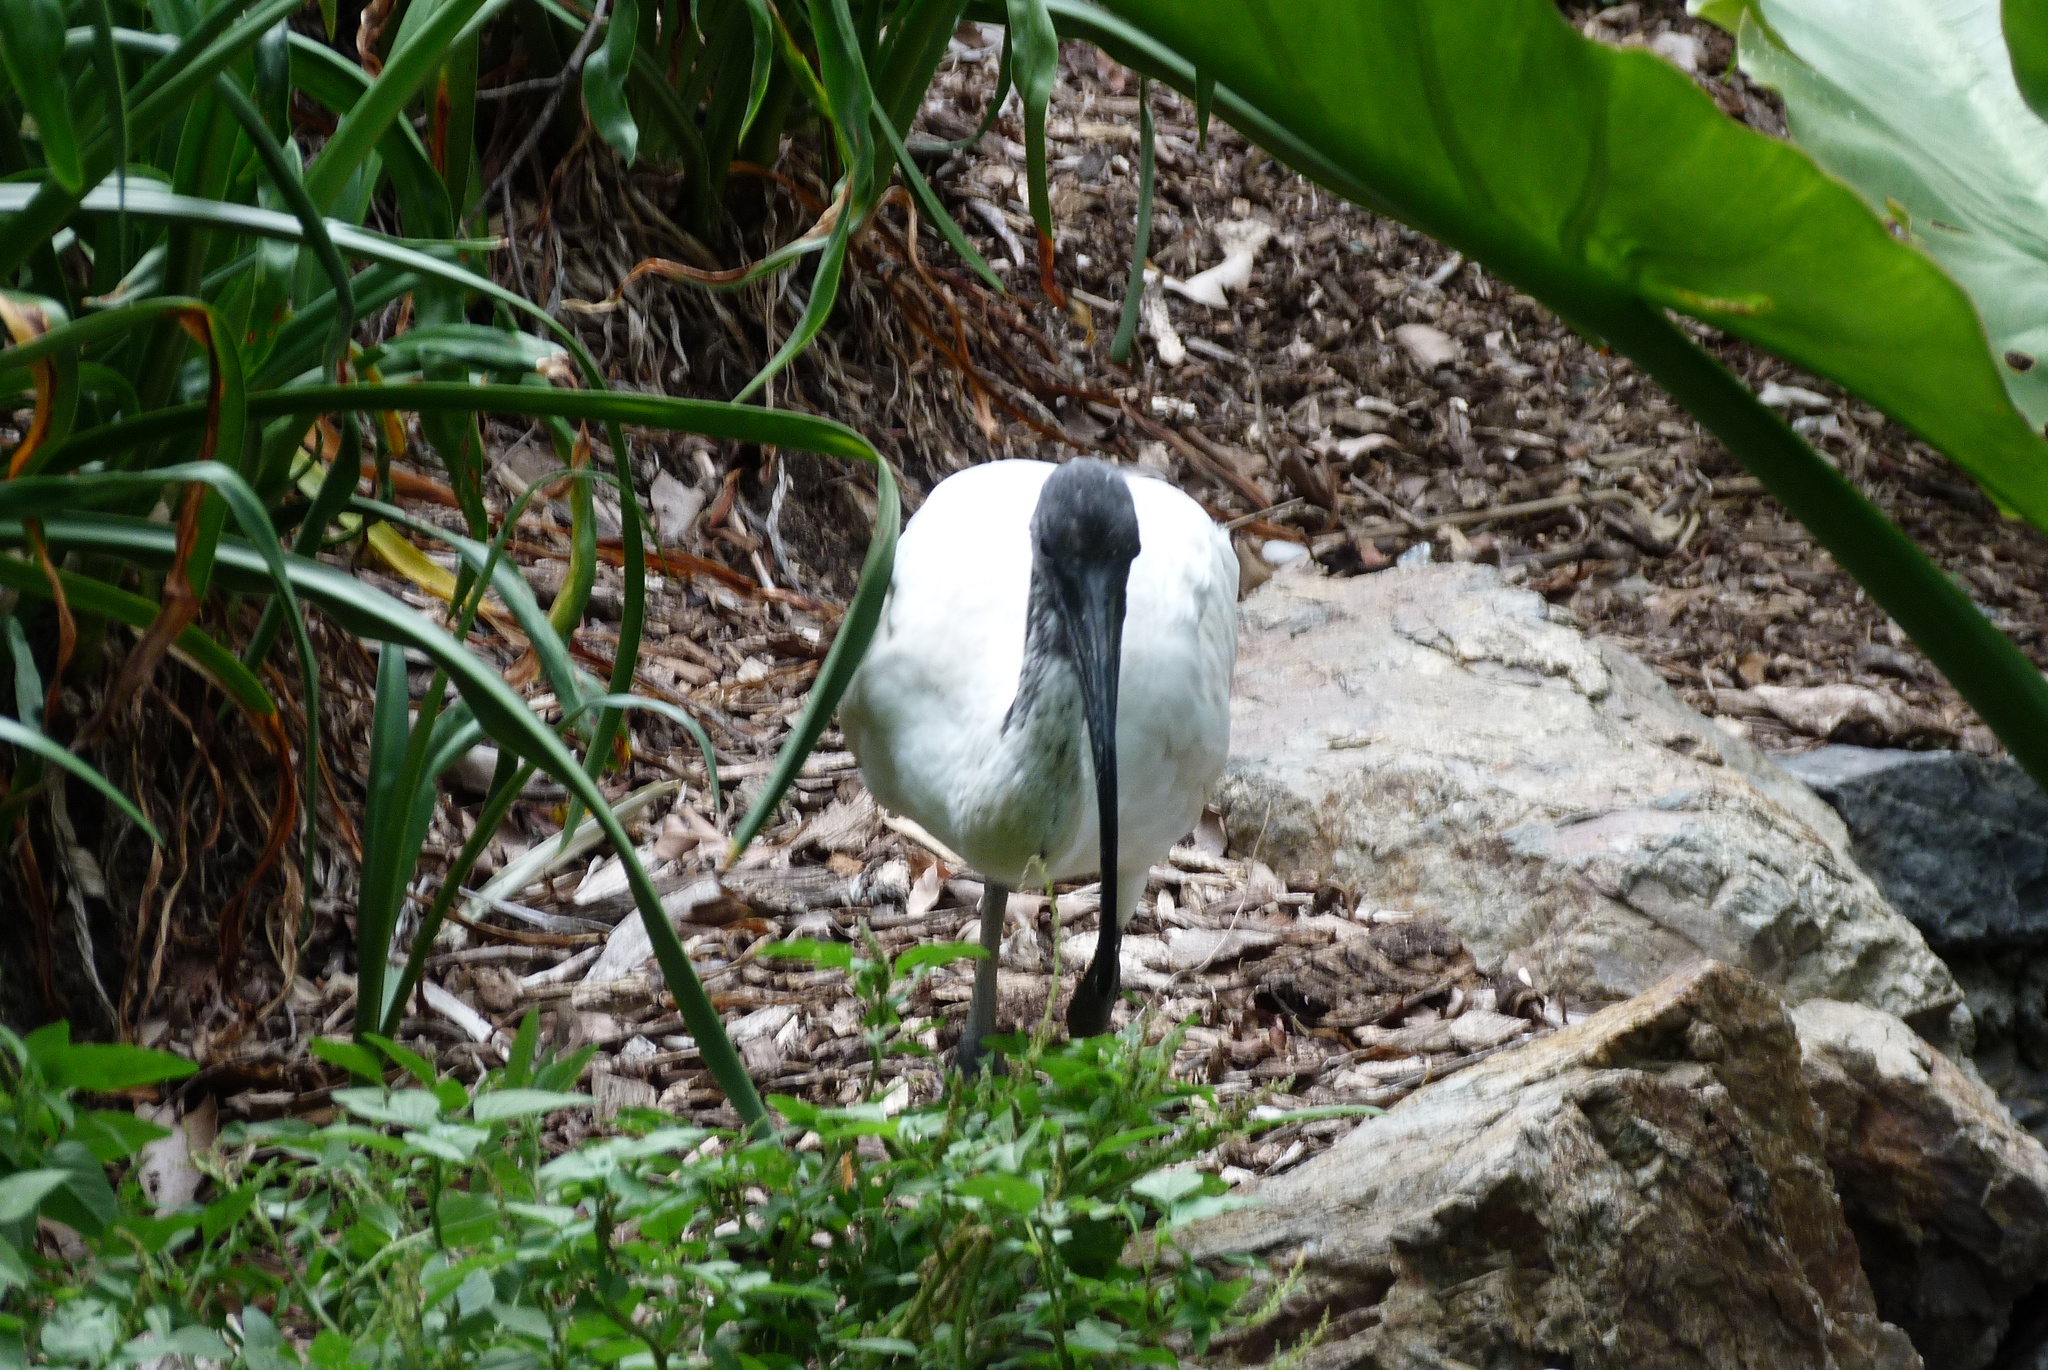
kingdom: Animalia
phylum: Chordata
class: Aves
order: Pelecaniformes
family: Threskiornithidae
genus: Threskiornis
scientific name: Threskiornis molucca
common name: Australian white ibis
